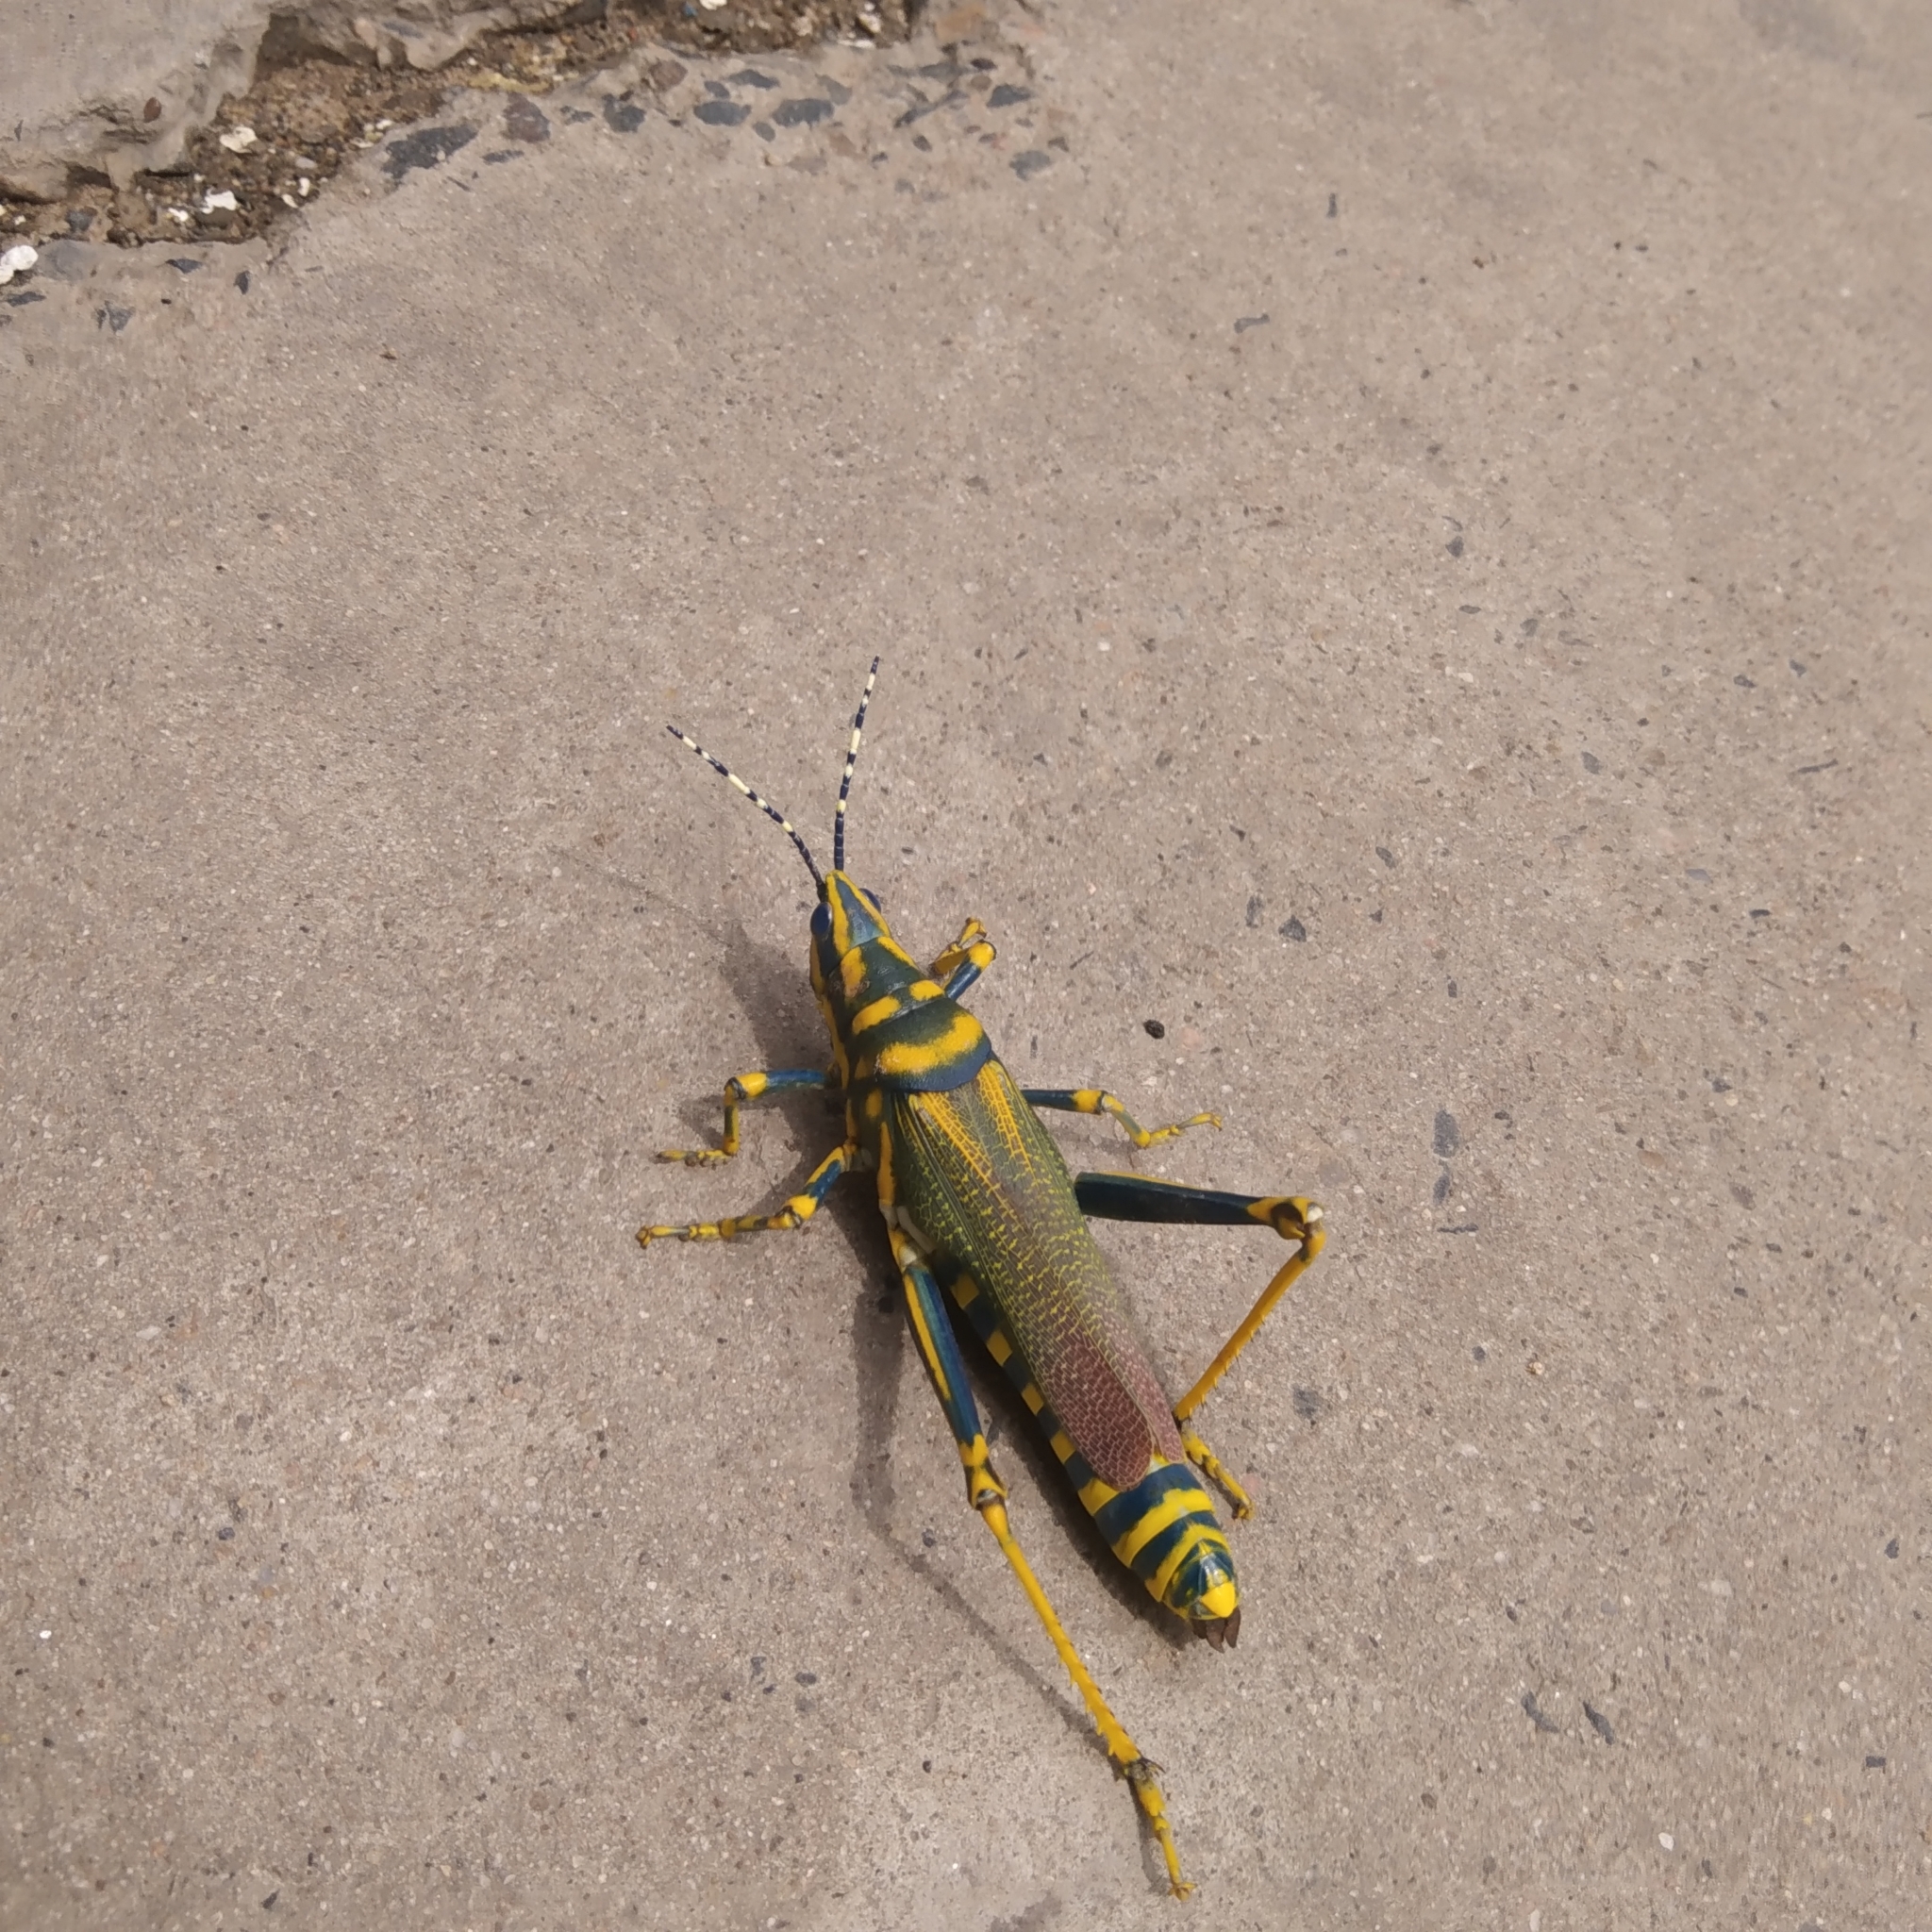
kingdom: Animalia
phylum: Arthropoda
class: Insecta
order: Orthoptera
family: Pyrgomorphidae
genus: Poekilocerus
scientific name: Poekilocerus pictus
